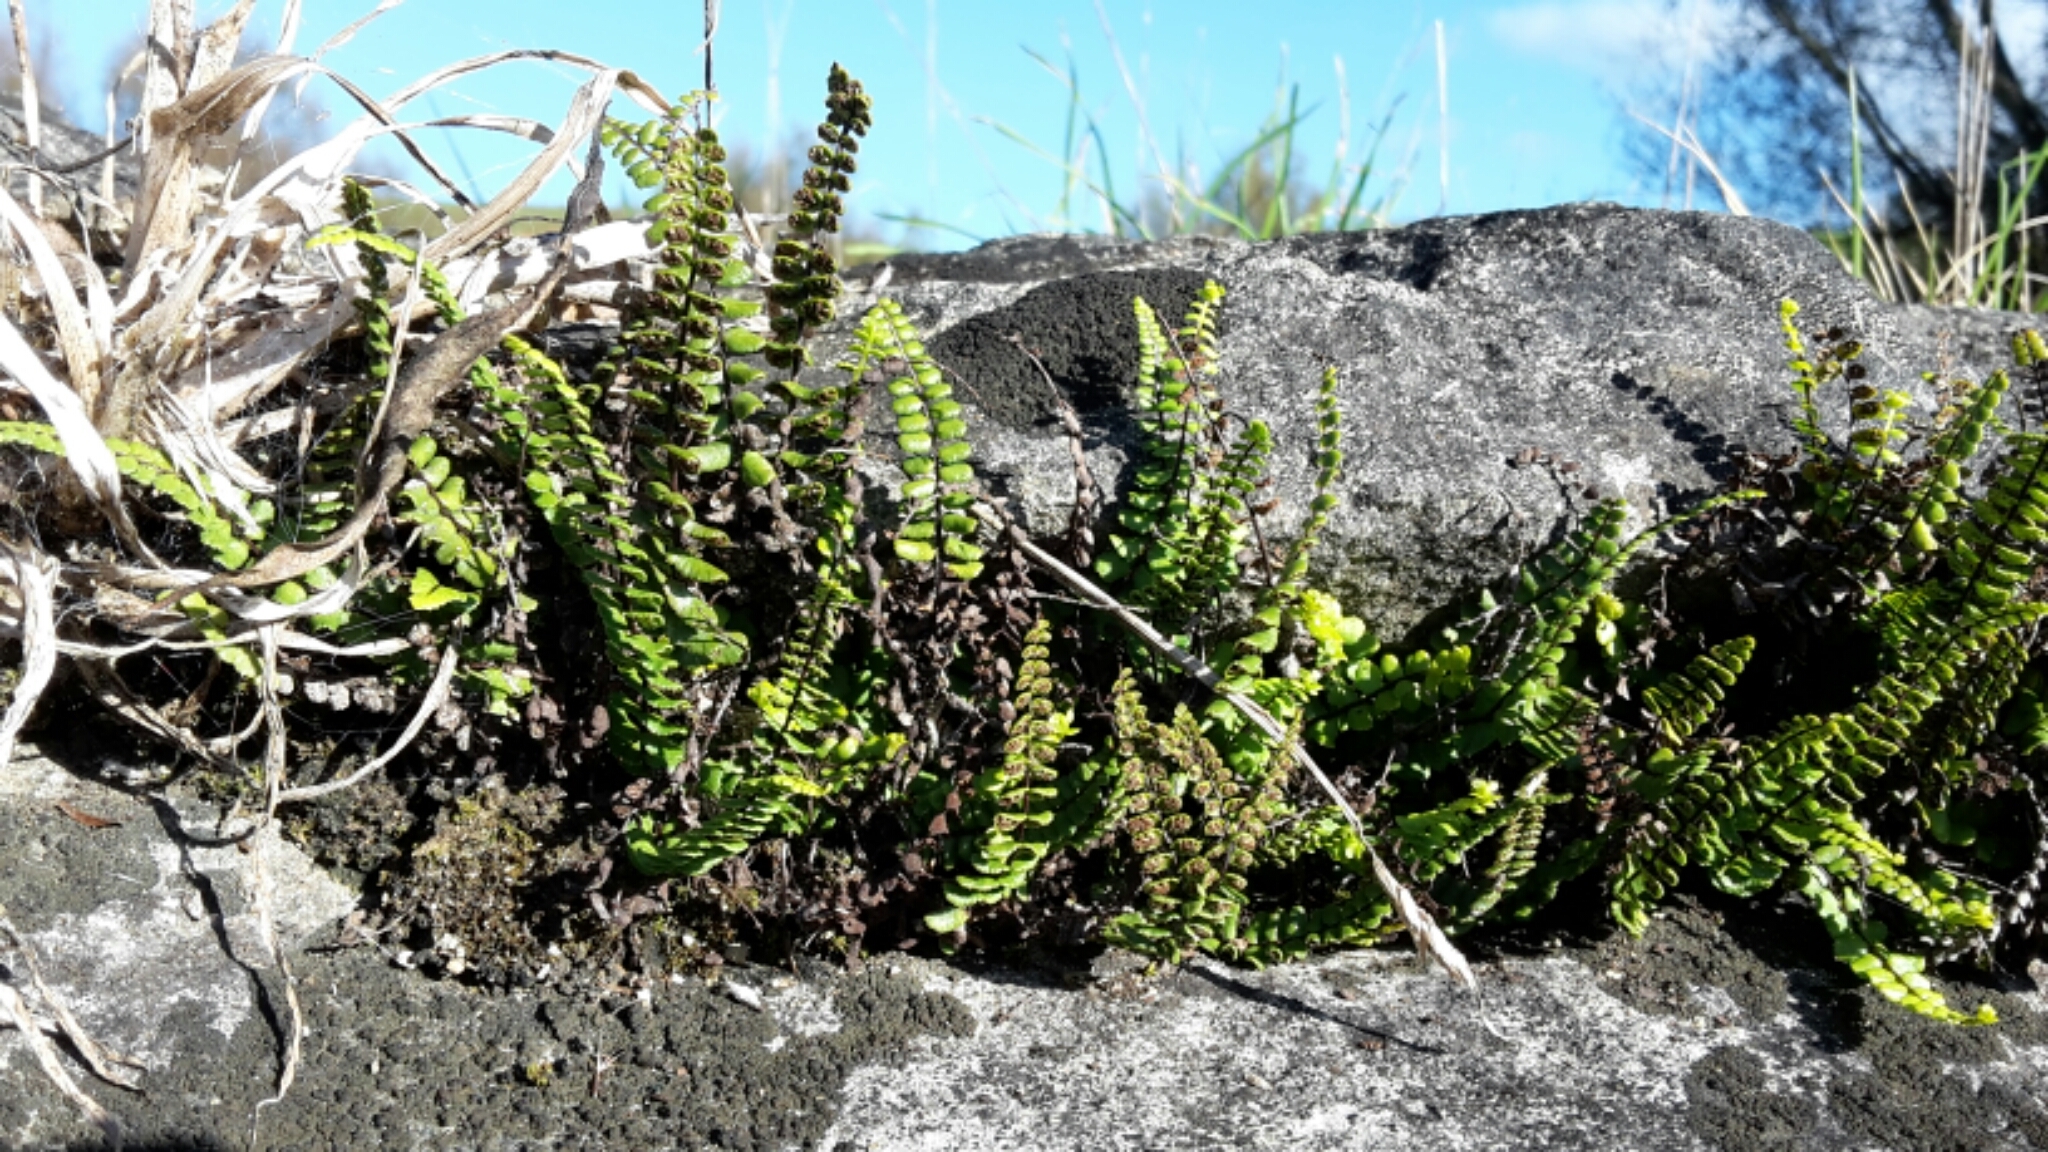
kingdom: Plantae
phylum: Tracheophyta
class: Polypodiopsida
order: Polypodiales
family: Aspleniaceae
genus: Asplenium
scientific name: Asplenium trichomanes
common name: Maidenhair spleenwort
